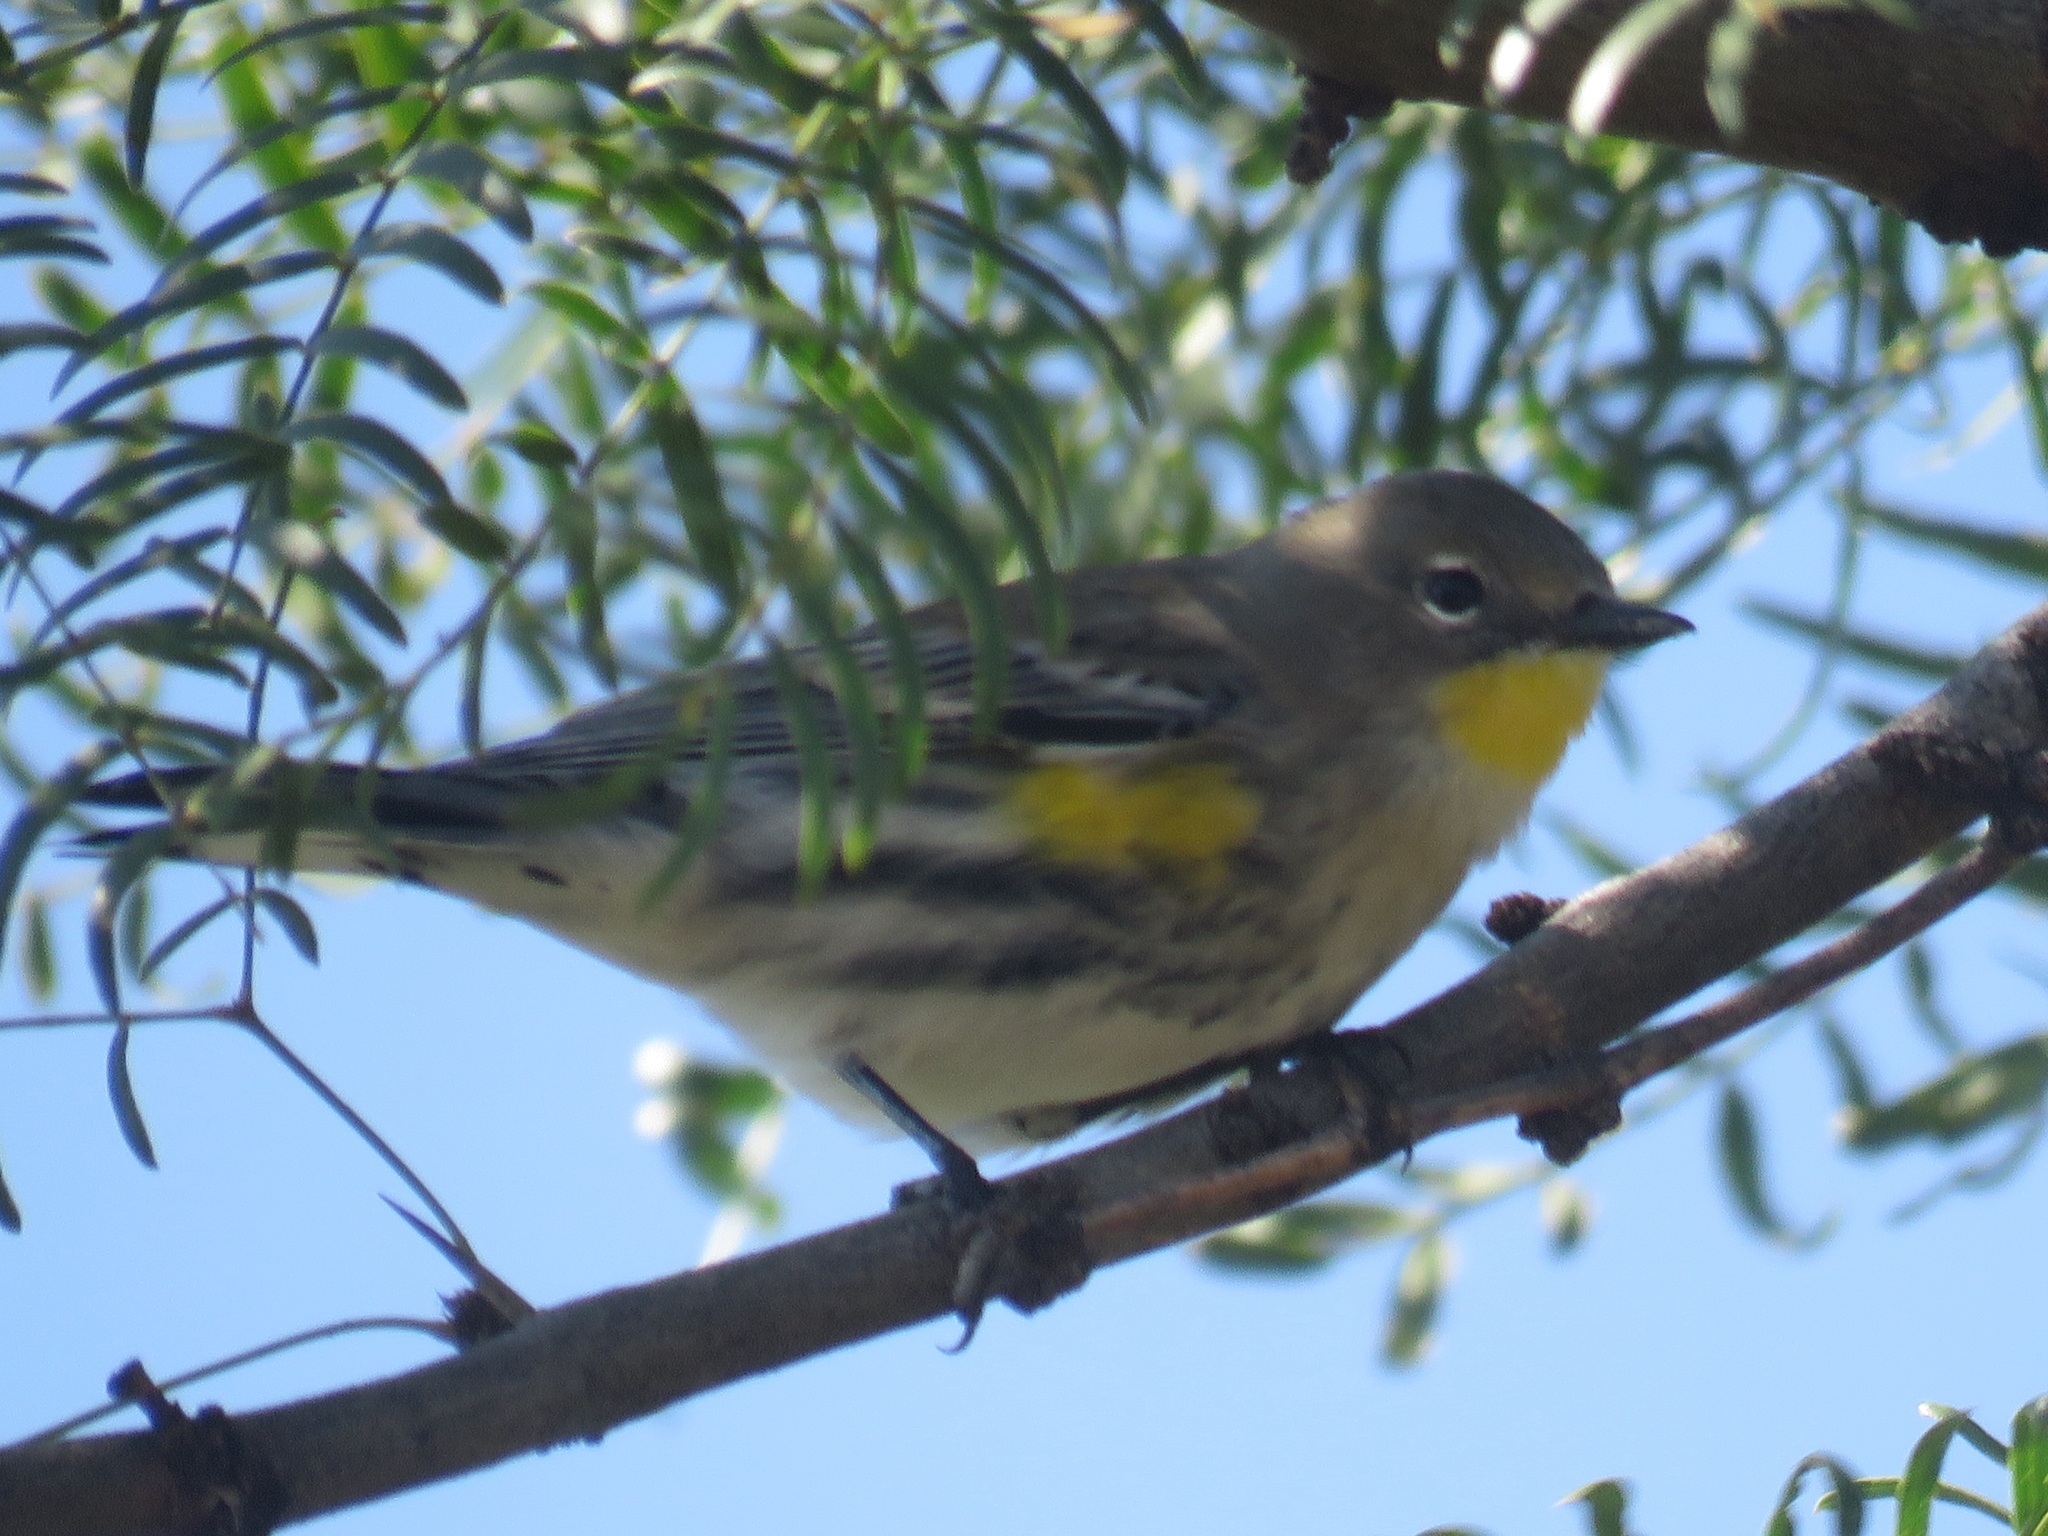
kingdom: Animalia
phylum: Chordata
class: Aves
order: Passeriformes
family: Parulidae
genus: Setophaga
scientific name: Setophaga coronata
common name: Myrtle warbler
